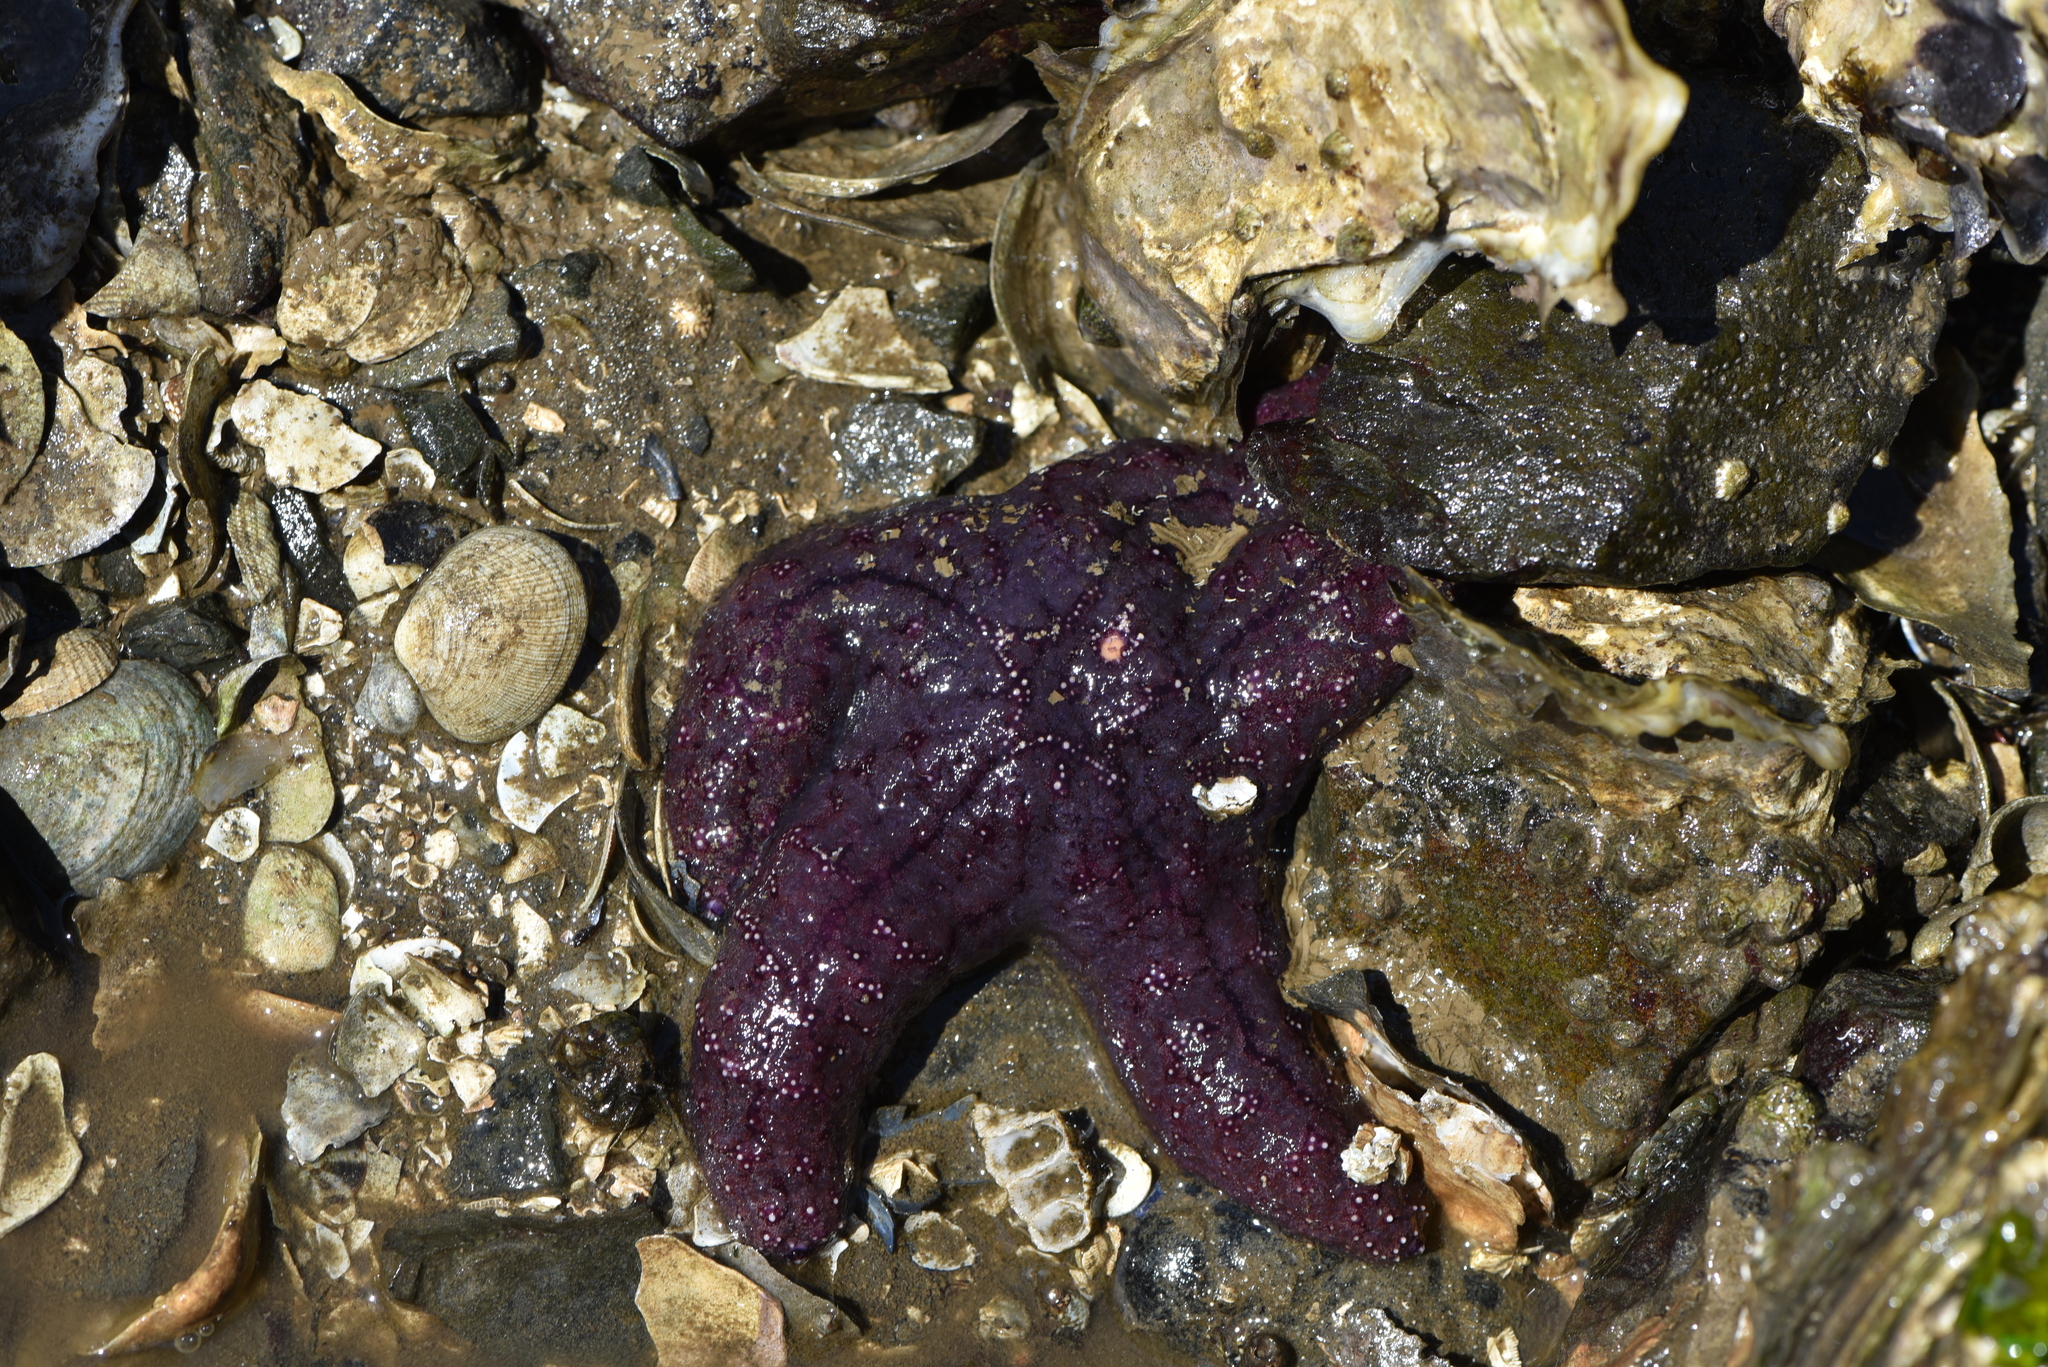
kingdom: Animalia
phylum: Echinodermata
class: Asteroidea
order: Forcipulatida
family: Asteriidae
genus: Pisaster
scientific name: Pisaster ochraceus
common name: Ochre stars
